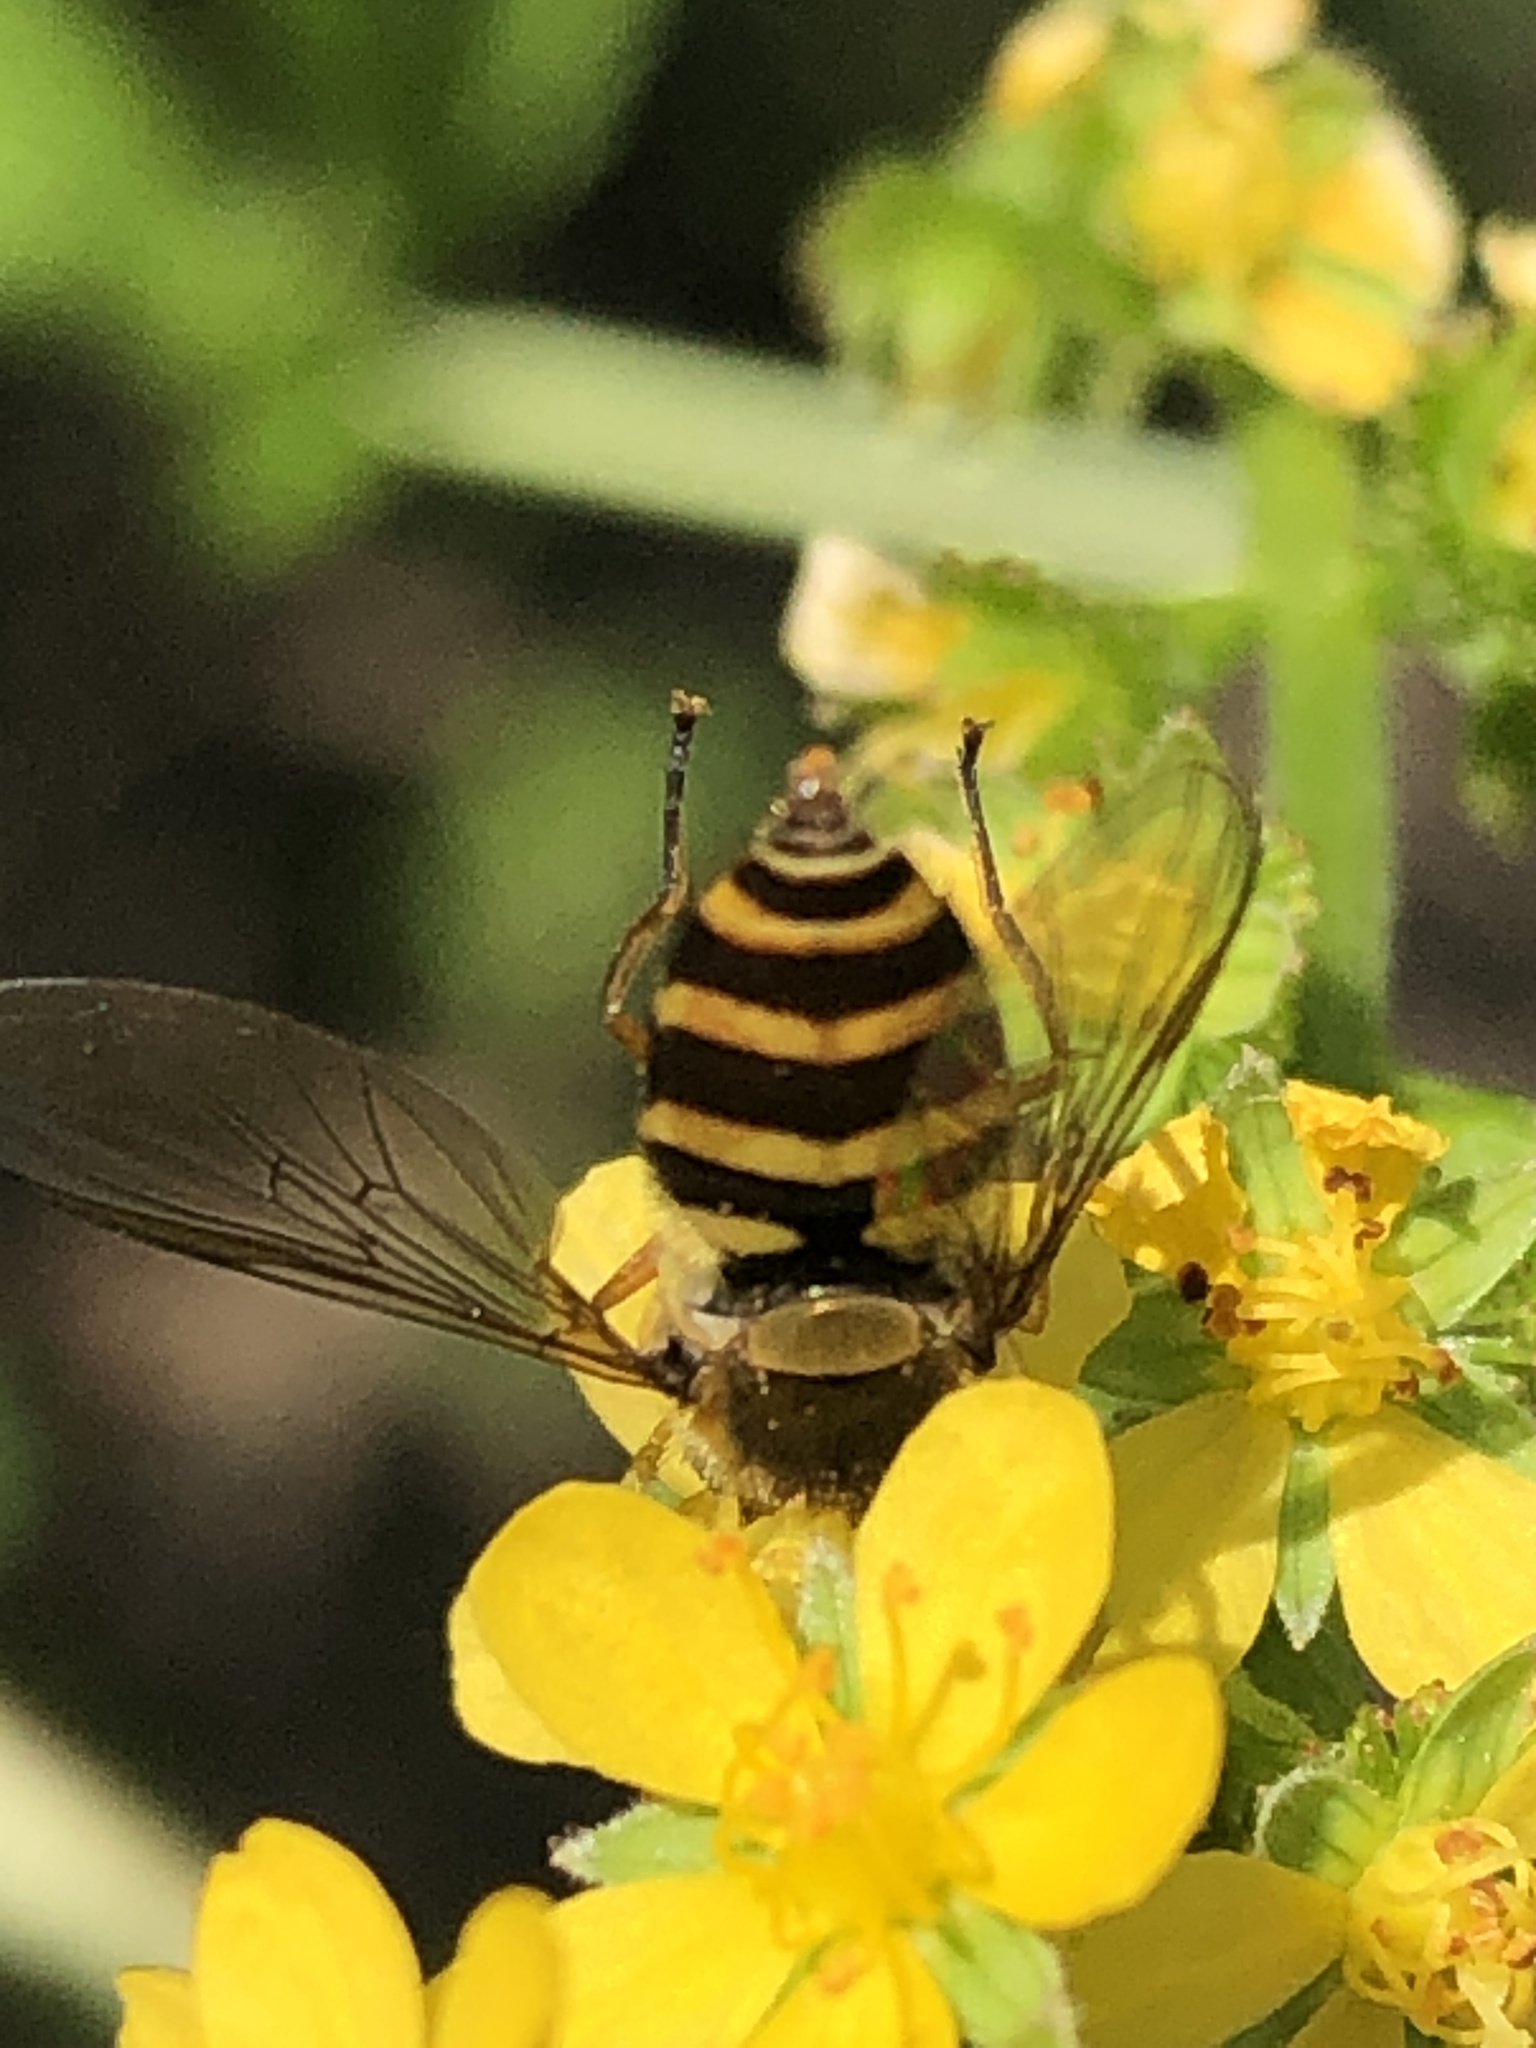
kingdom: Animalia
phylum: Arthropoda
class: Insecta
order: Diptera
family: Syrphidae
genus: Syrphus
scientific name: Syrphus ribesii
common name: Common flower fly
